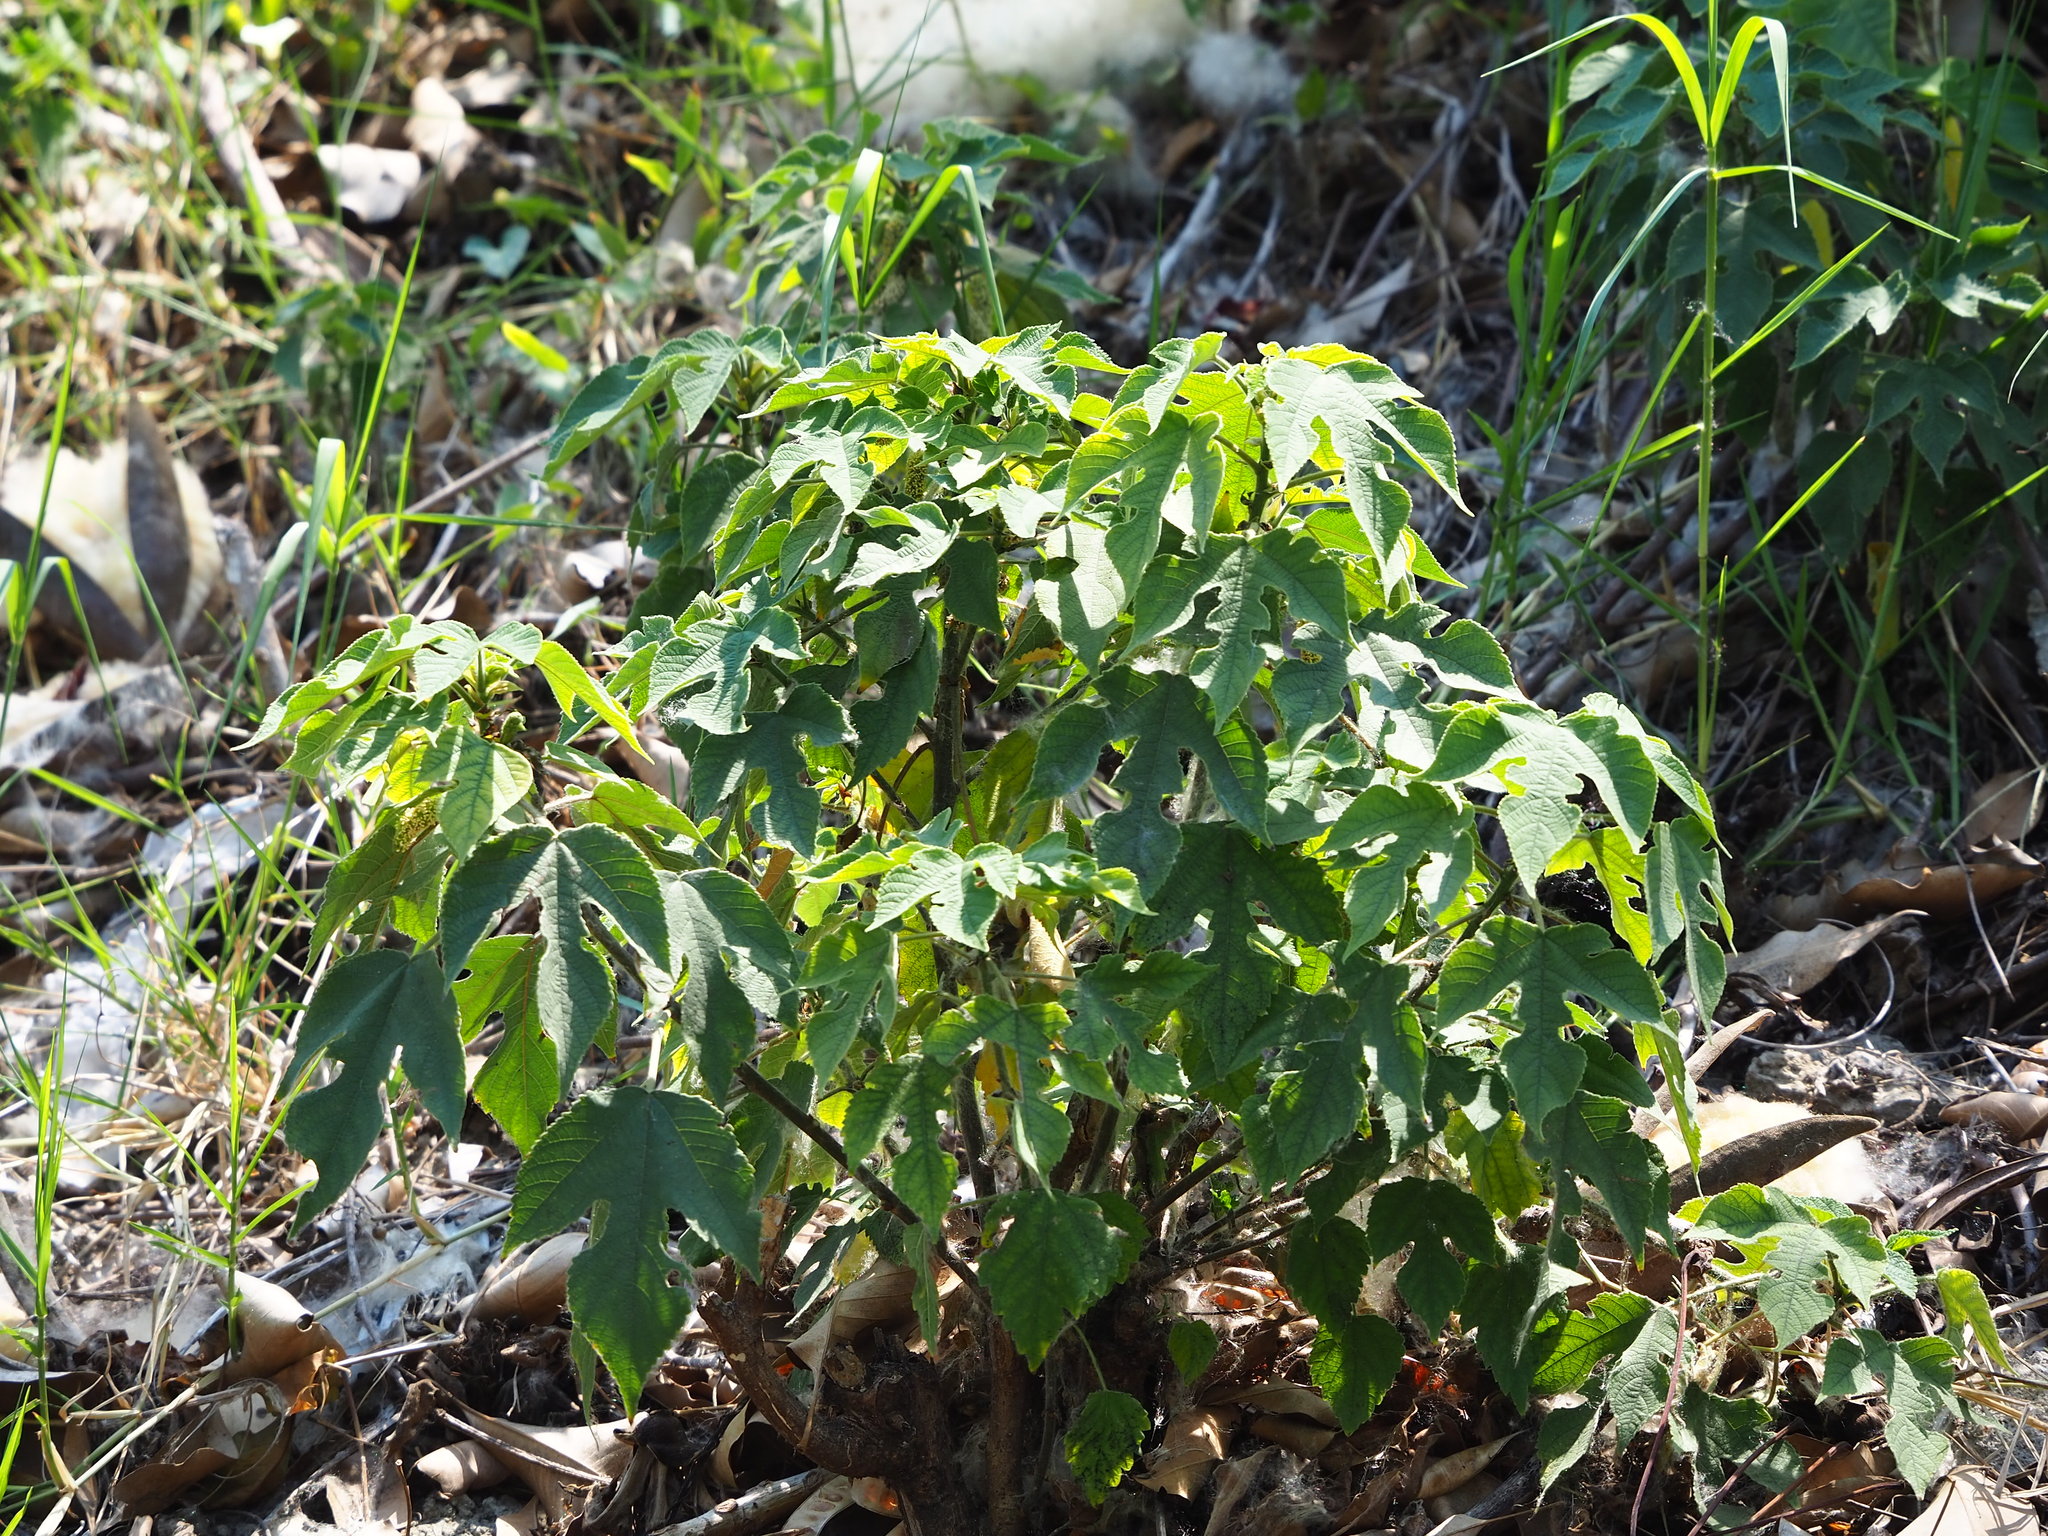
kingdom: Plantae
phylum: Tracheophyta
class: Magnoliopsida
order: Rosales
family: Moraceae
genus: Broussonetia
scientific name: Broussonetia papyrifera
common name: Paper mulberry
